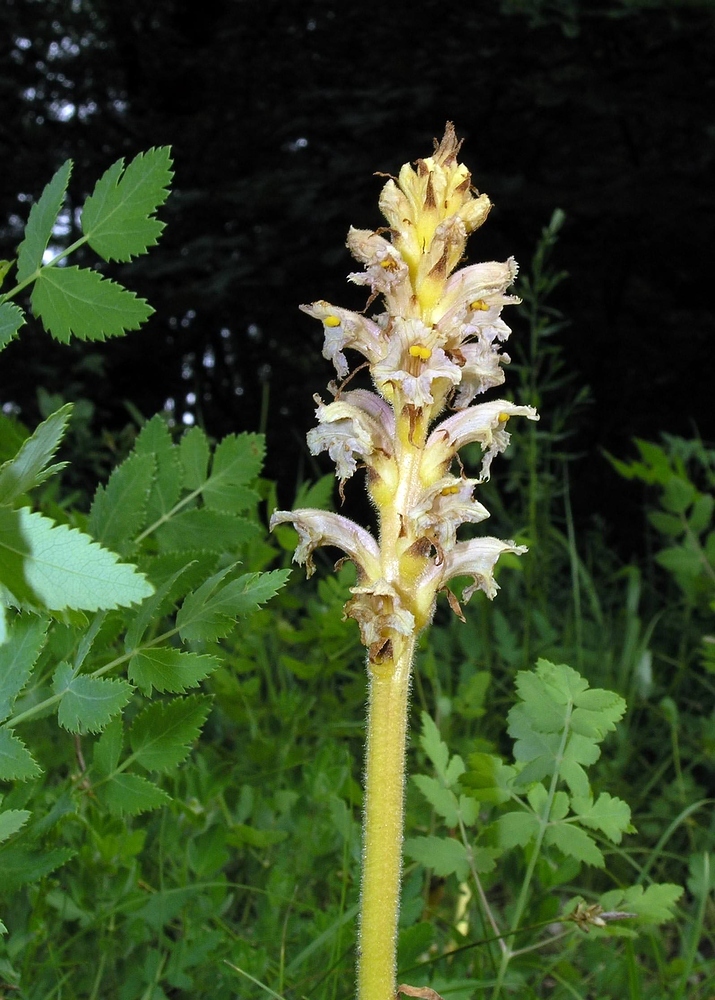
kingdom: Plantae
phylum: Tracheophyta
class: Magnoliopsida
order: Lamiales
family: Orobanchaceae
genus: Orobanche
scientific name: Orobanche alsatica
